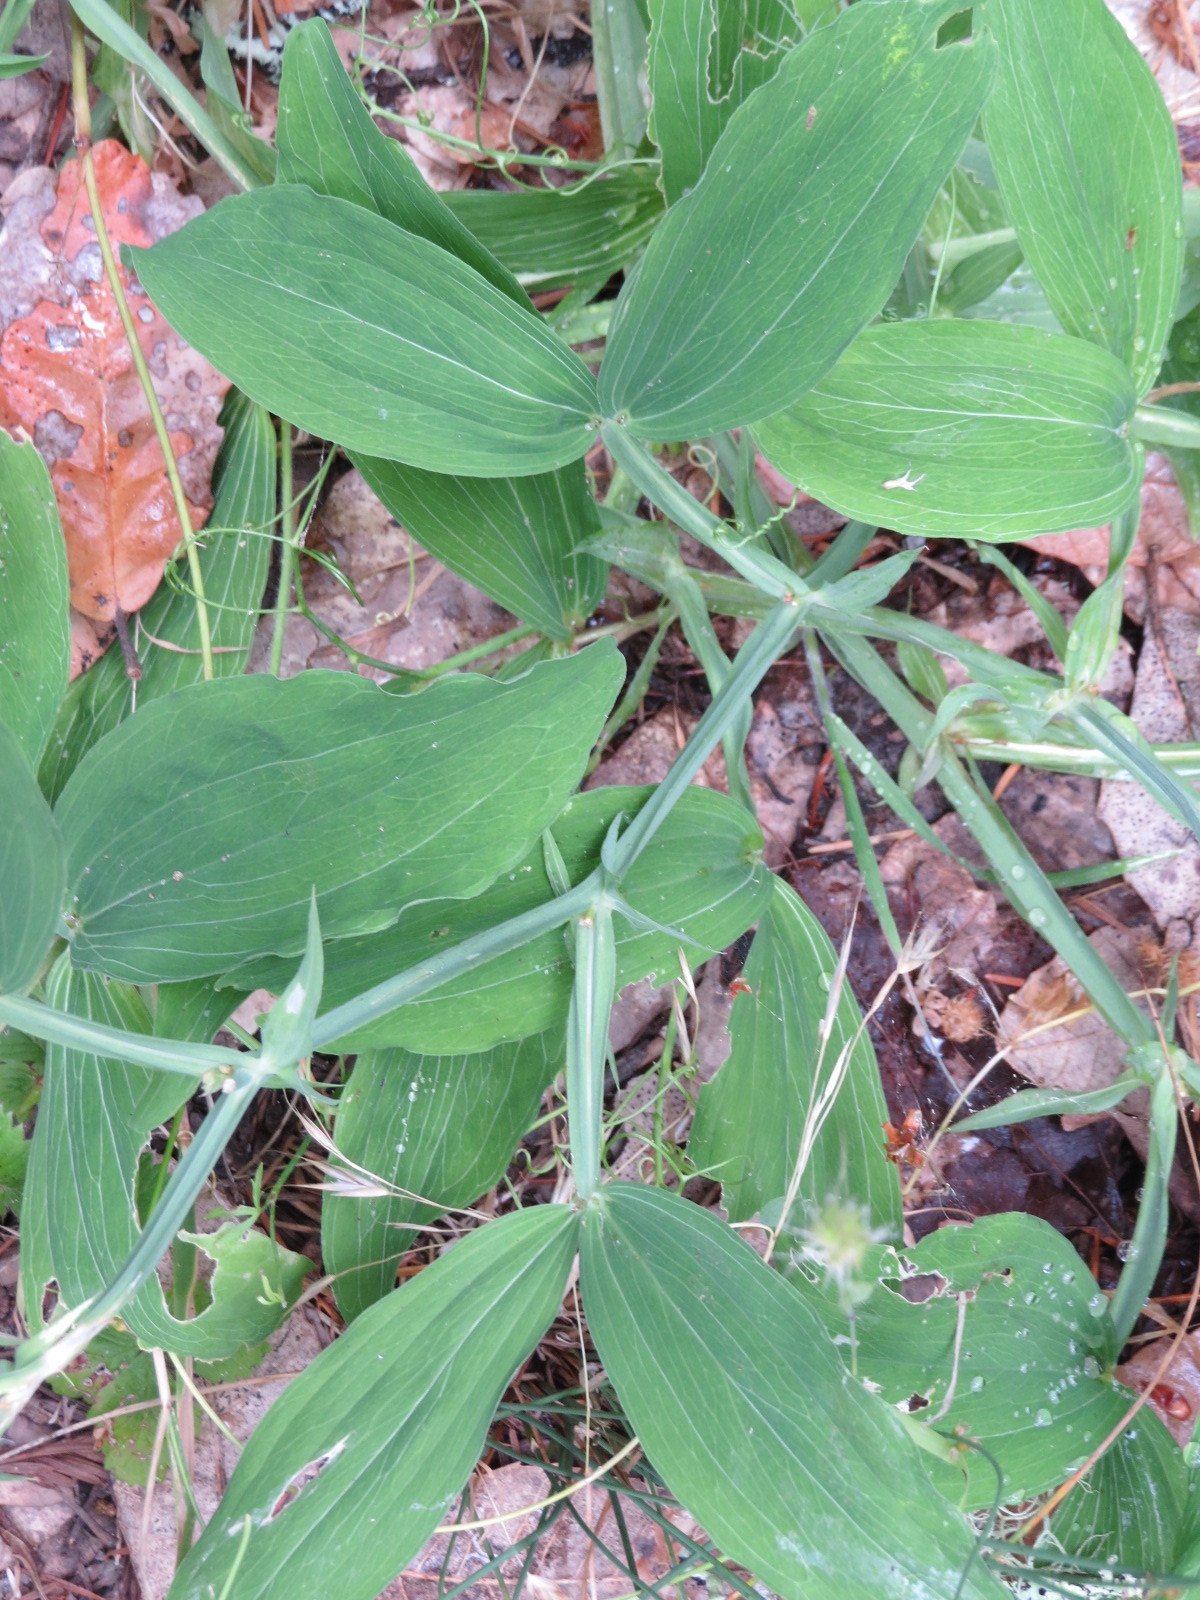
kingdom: Plantae
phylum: Tracheophyta
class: Magnoliopsida
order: Fabales
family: Fabaceae
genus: Lathyrus
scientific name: Lathyrus latifolius
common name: Perennial pea
